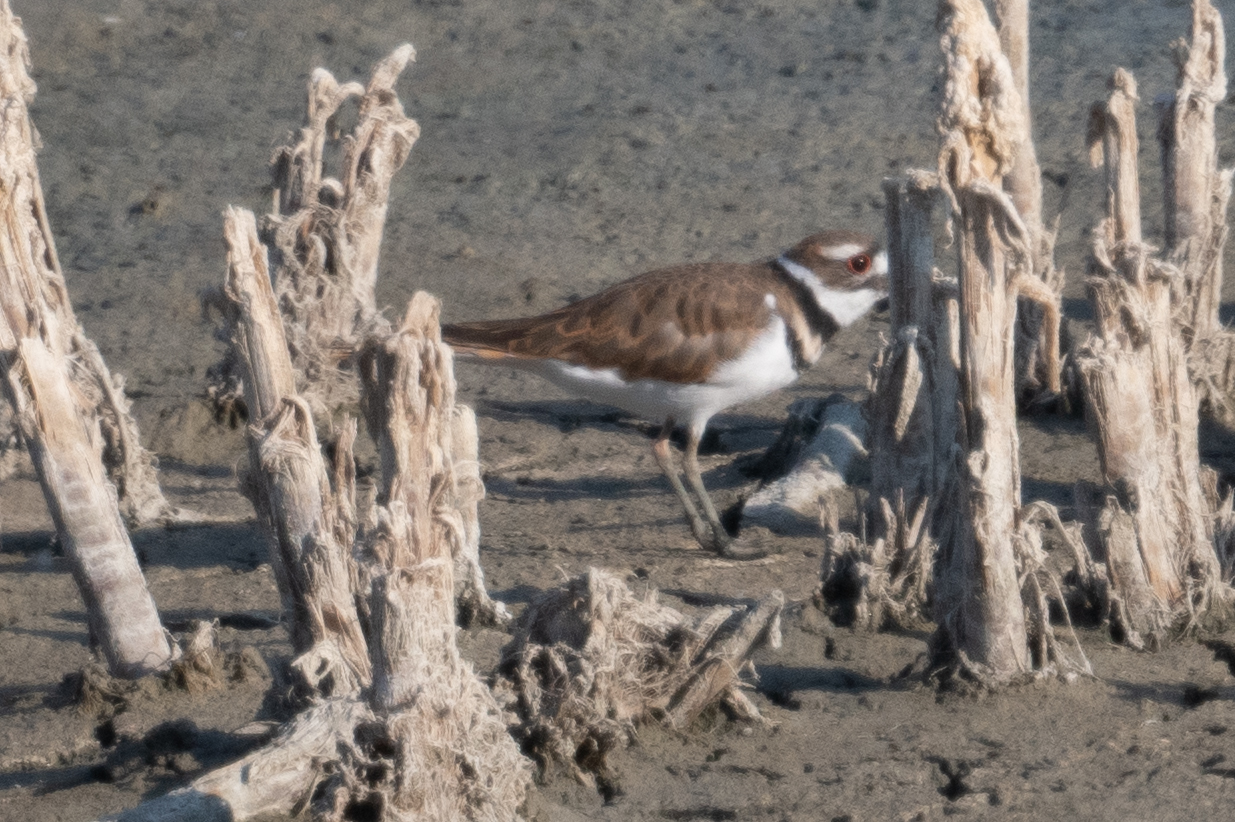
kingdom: Animalia
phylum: Chordata
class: Aves
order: Charadriiformes
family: Charadriidae
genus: Charadrius
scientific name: Charadrius vociferus
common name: Killdeer
